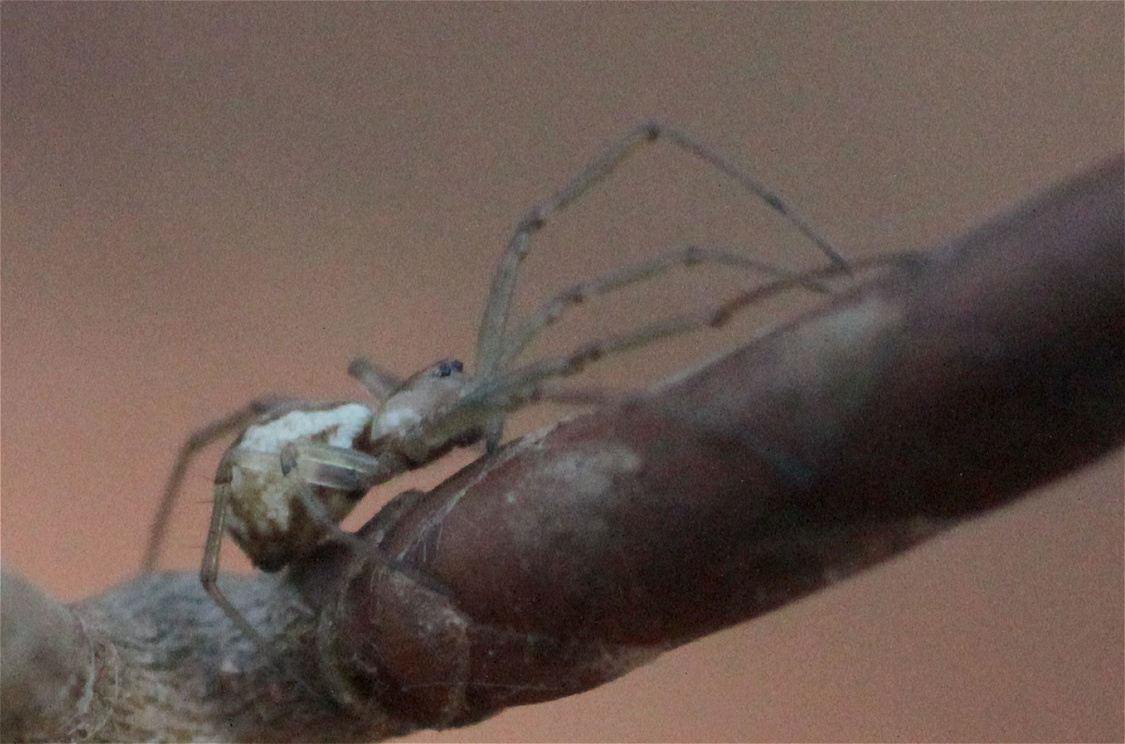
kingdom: Animalia
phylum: Arthropoda
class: Arachnida
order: Araneae
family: Tetragnathidae
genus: Tetragnatha
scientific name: Tetragnatha obtusa
